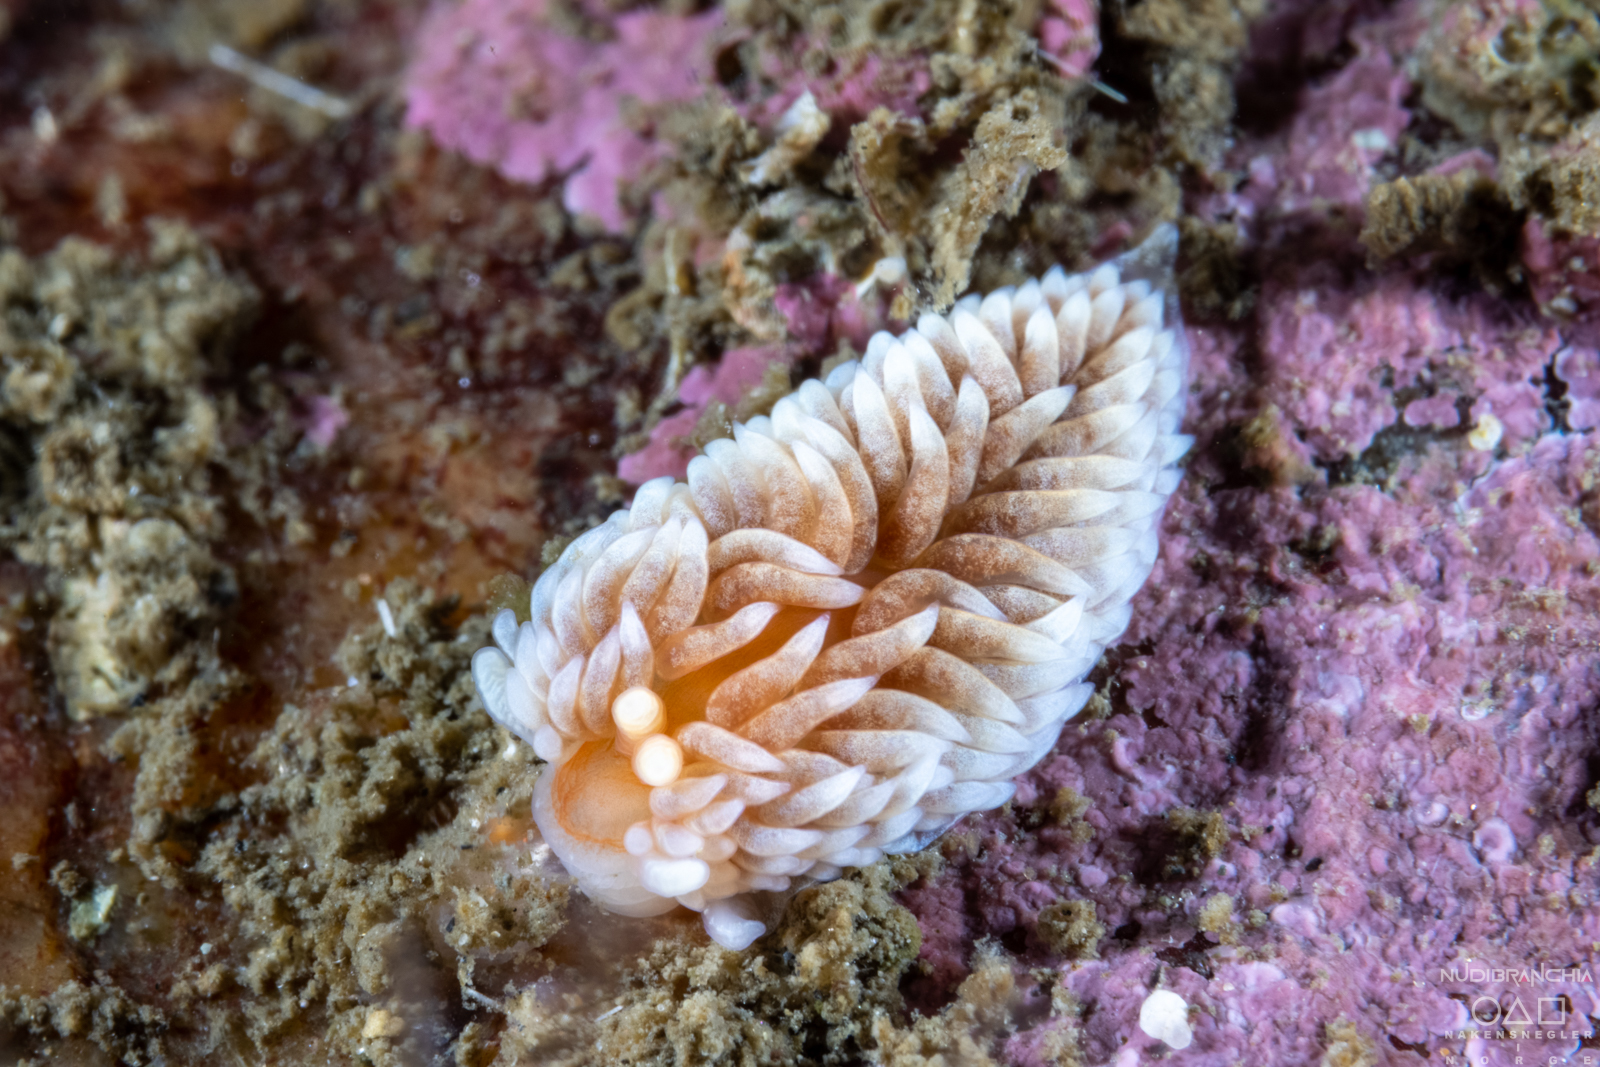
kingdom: Animalia
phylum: Mollusca
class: Gastropoda
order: Nudibranchia
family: Aeolidiidae
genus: Aeolidiella
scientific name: Aeolidiella glauca
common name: Orange-brown aeolid
